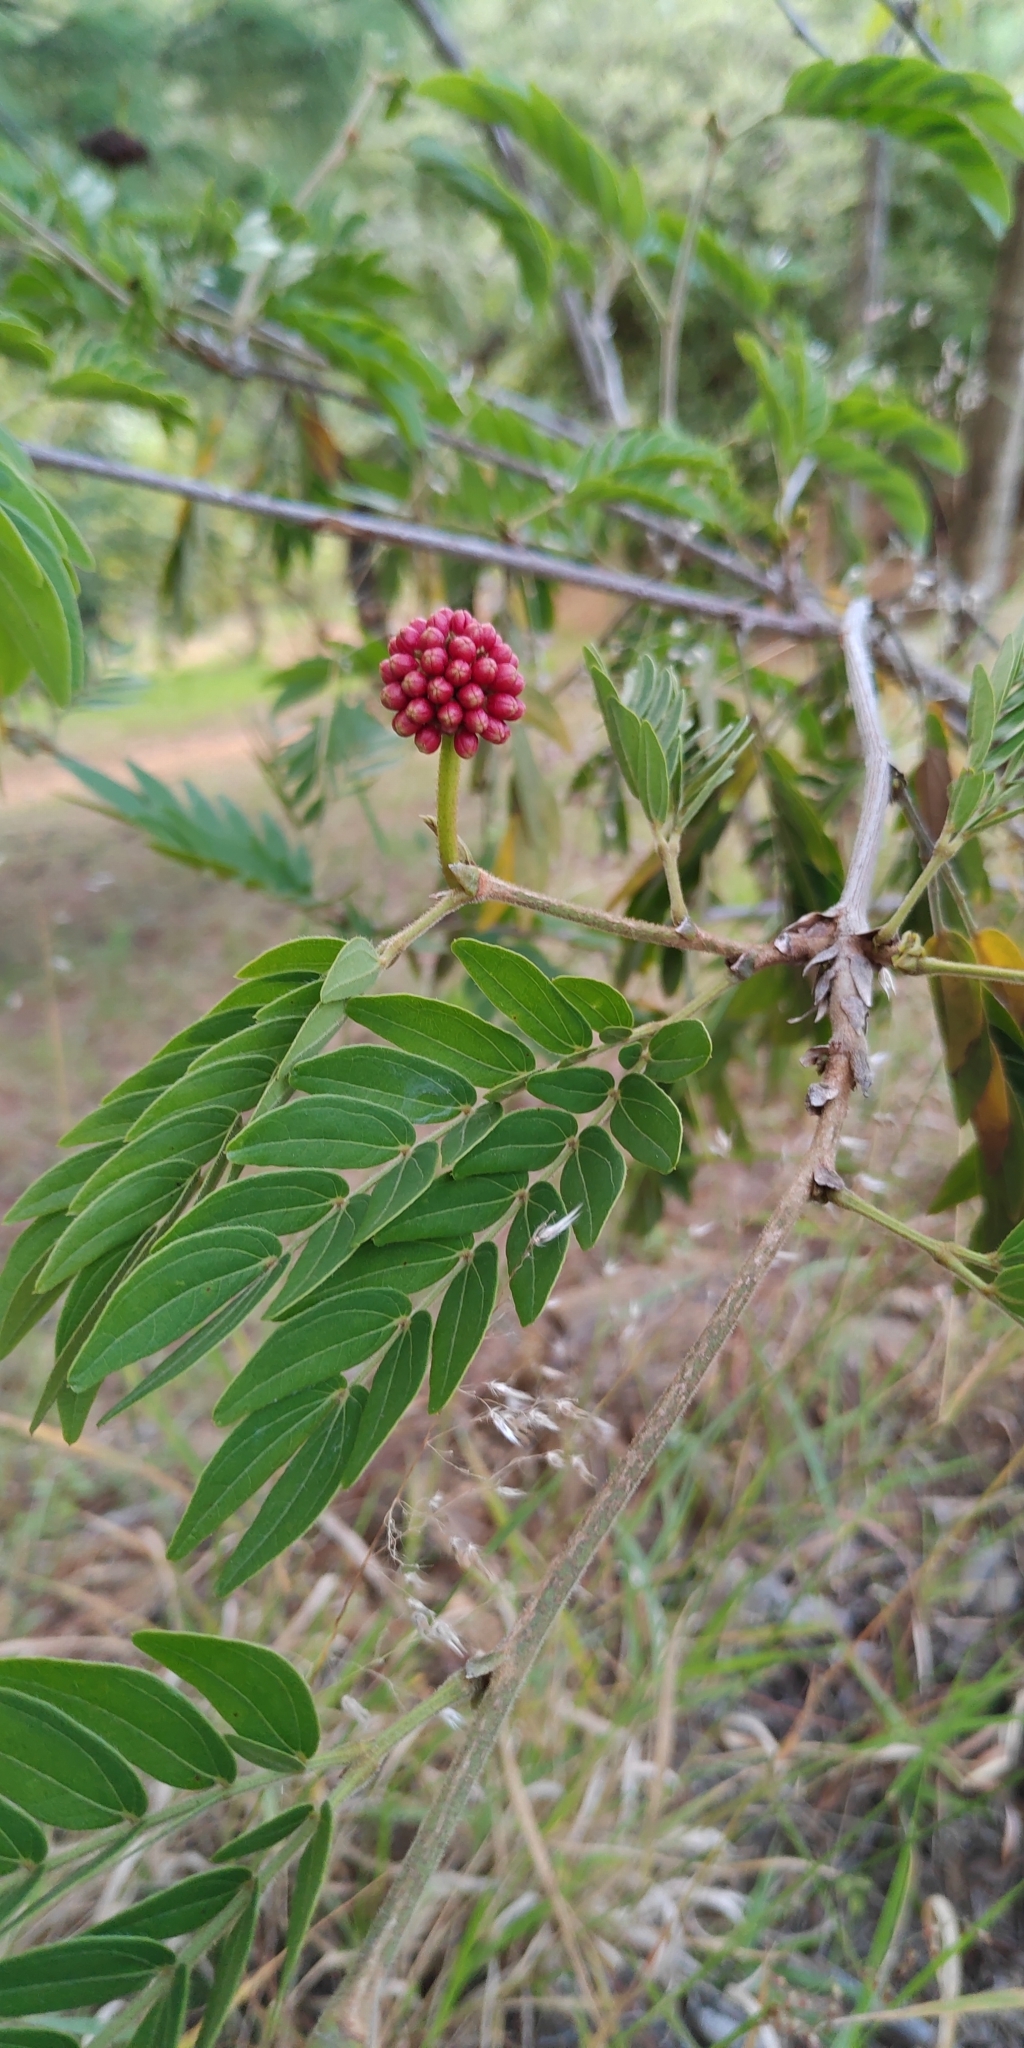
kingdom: Plantae
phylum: Tracheophyta
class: Magnoliopsida
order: Fabales
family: Fabaceae
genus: Calliandra
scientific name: Calliandra haematocephala
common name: Blood red tassel flower
